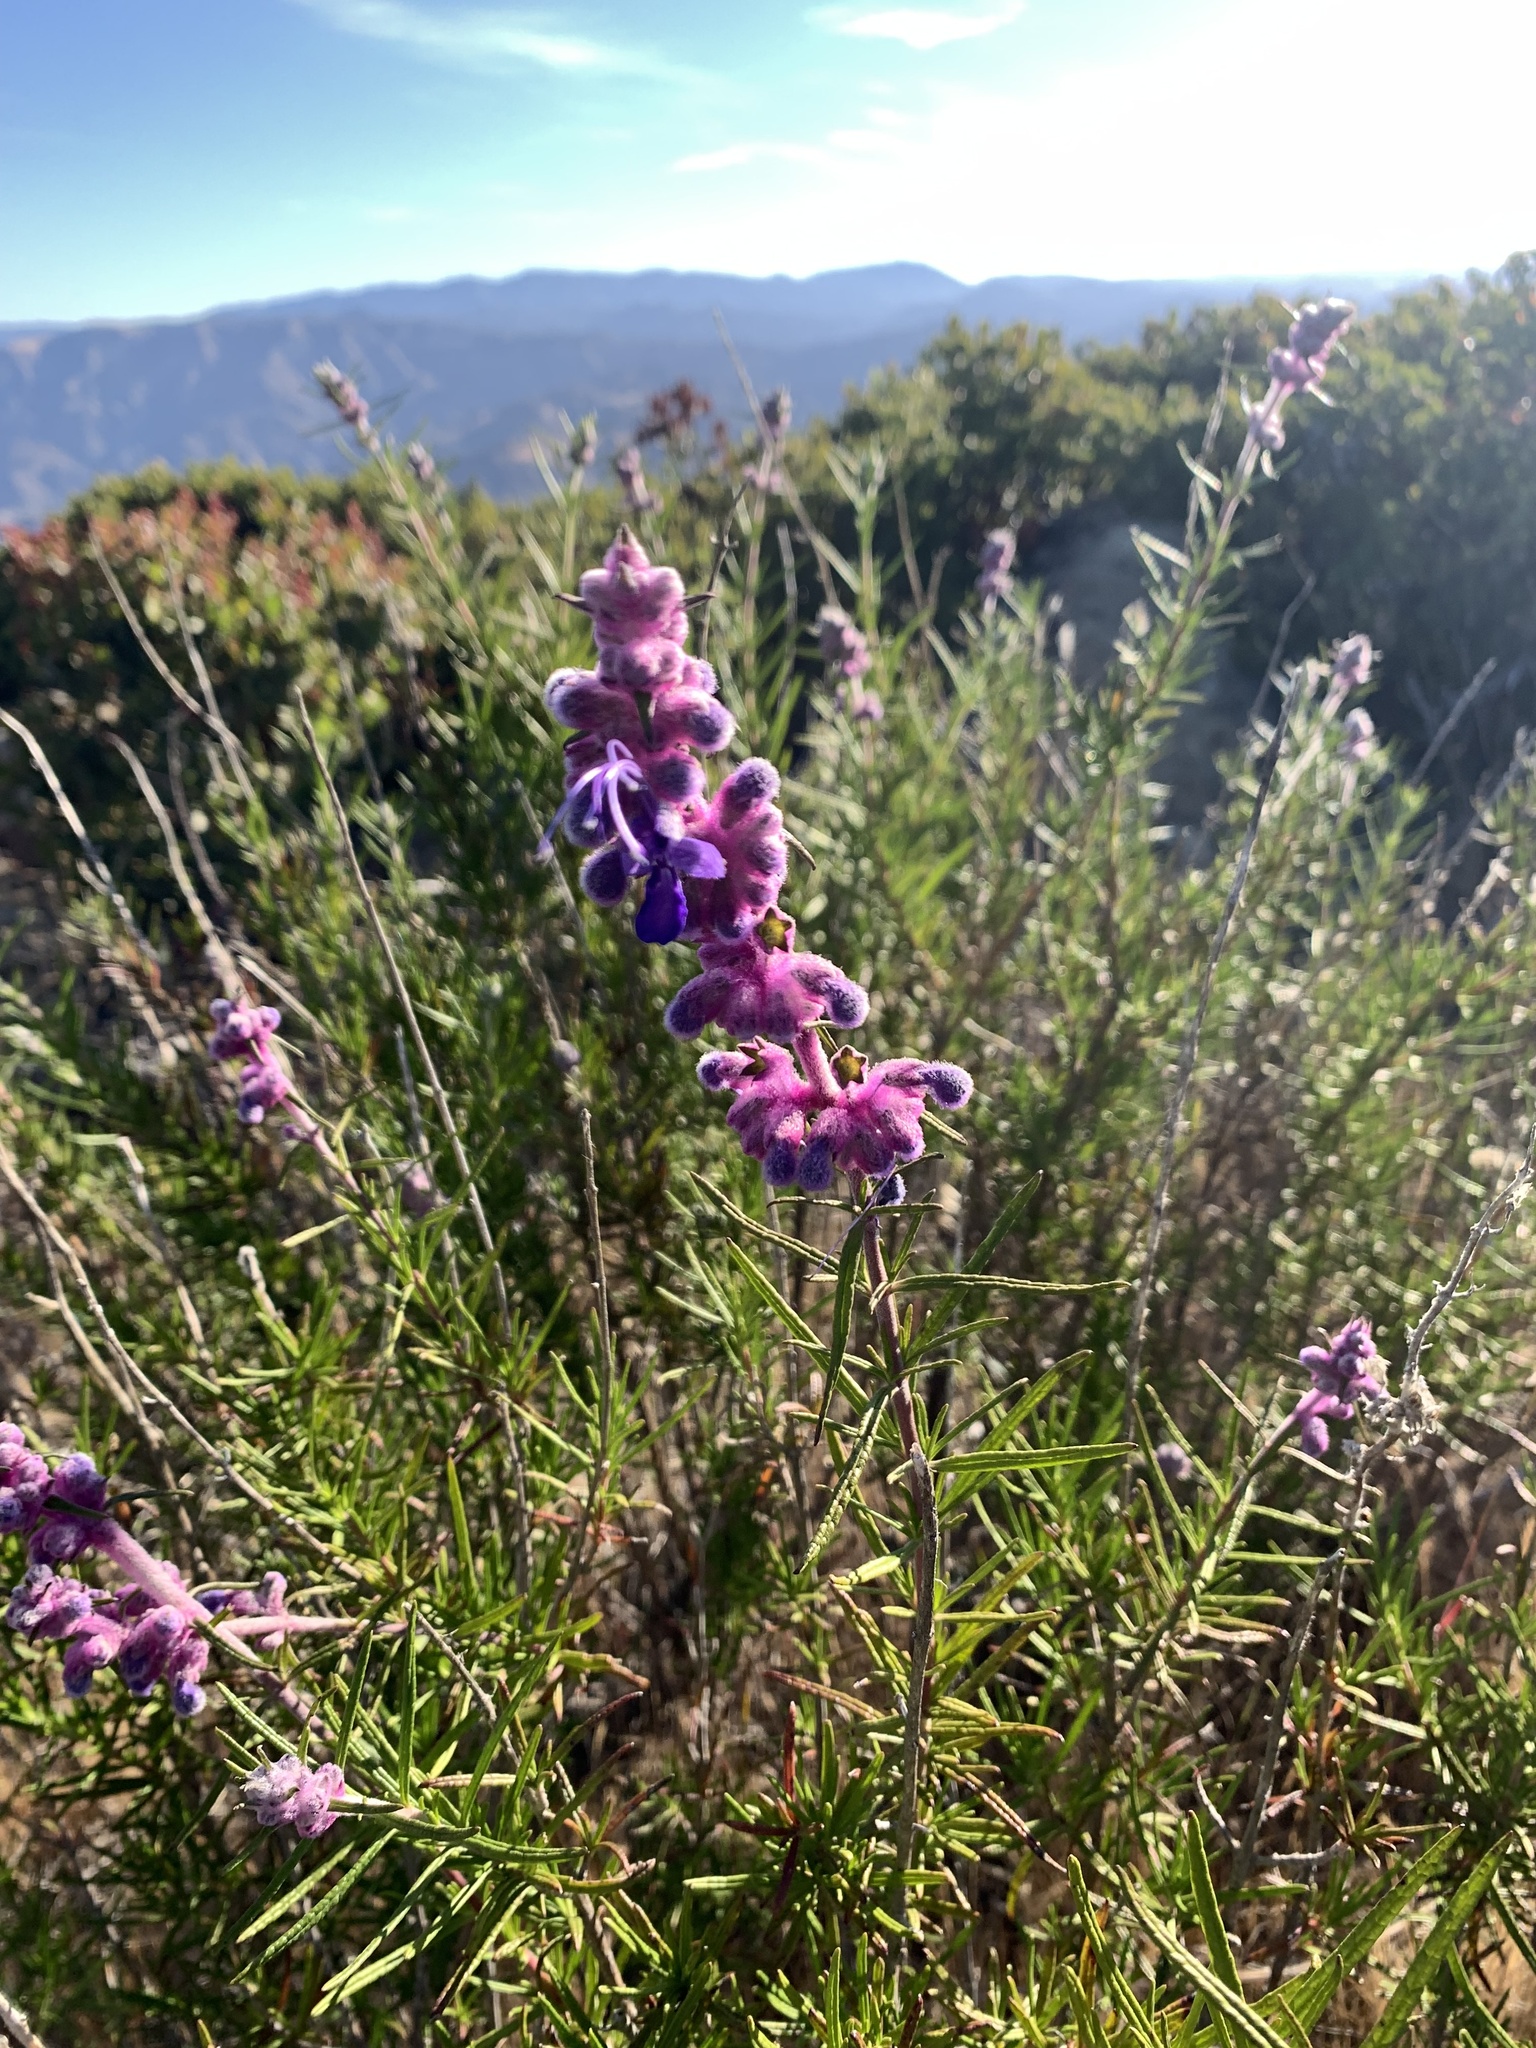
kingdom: Plantae
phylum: Tracheophyta
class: Magnoliopsida
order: Lamiales
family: Lamiaceae
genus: Trichostema
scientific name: Trichostema lanatum
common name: Woolly bluecurls
